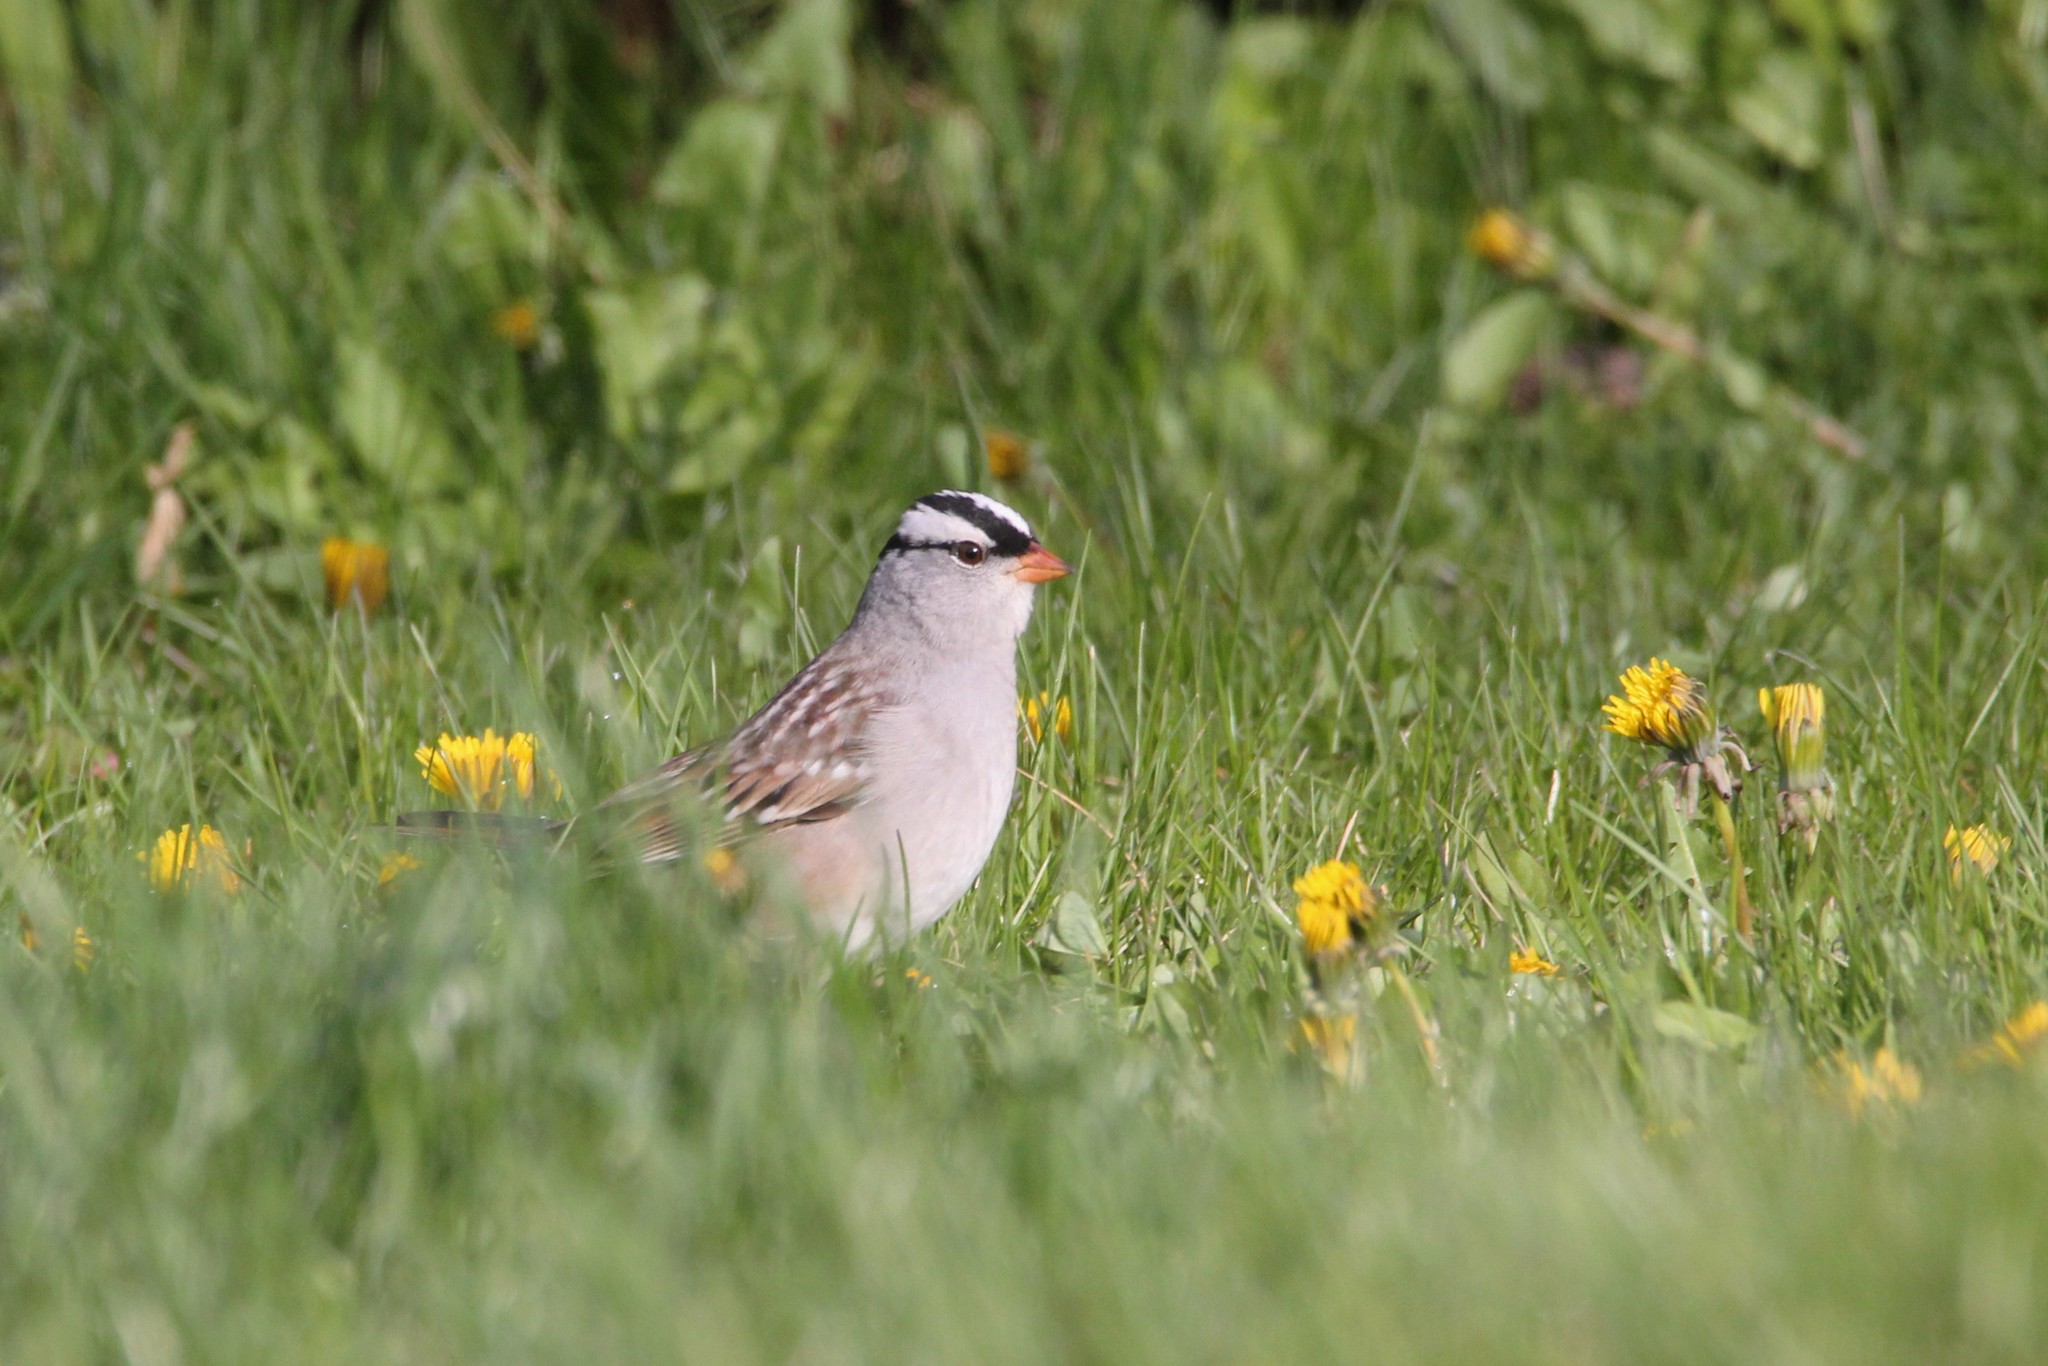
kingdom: Animalia
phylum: Chordata
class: Aves
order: Passeriformes
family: Passerellidae
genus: Zonotrichia
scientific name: Zonotrichia leucophrys
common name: White-crowned sparrow
